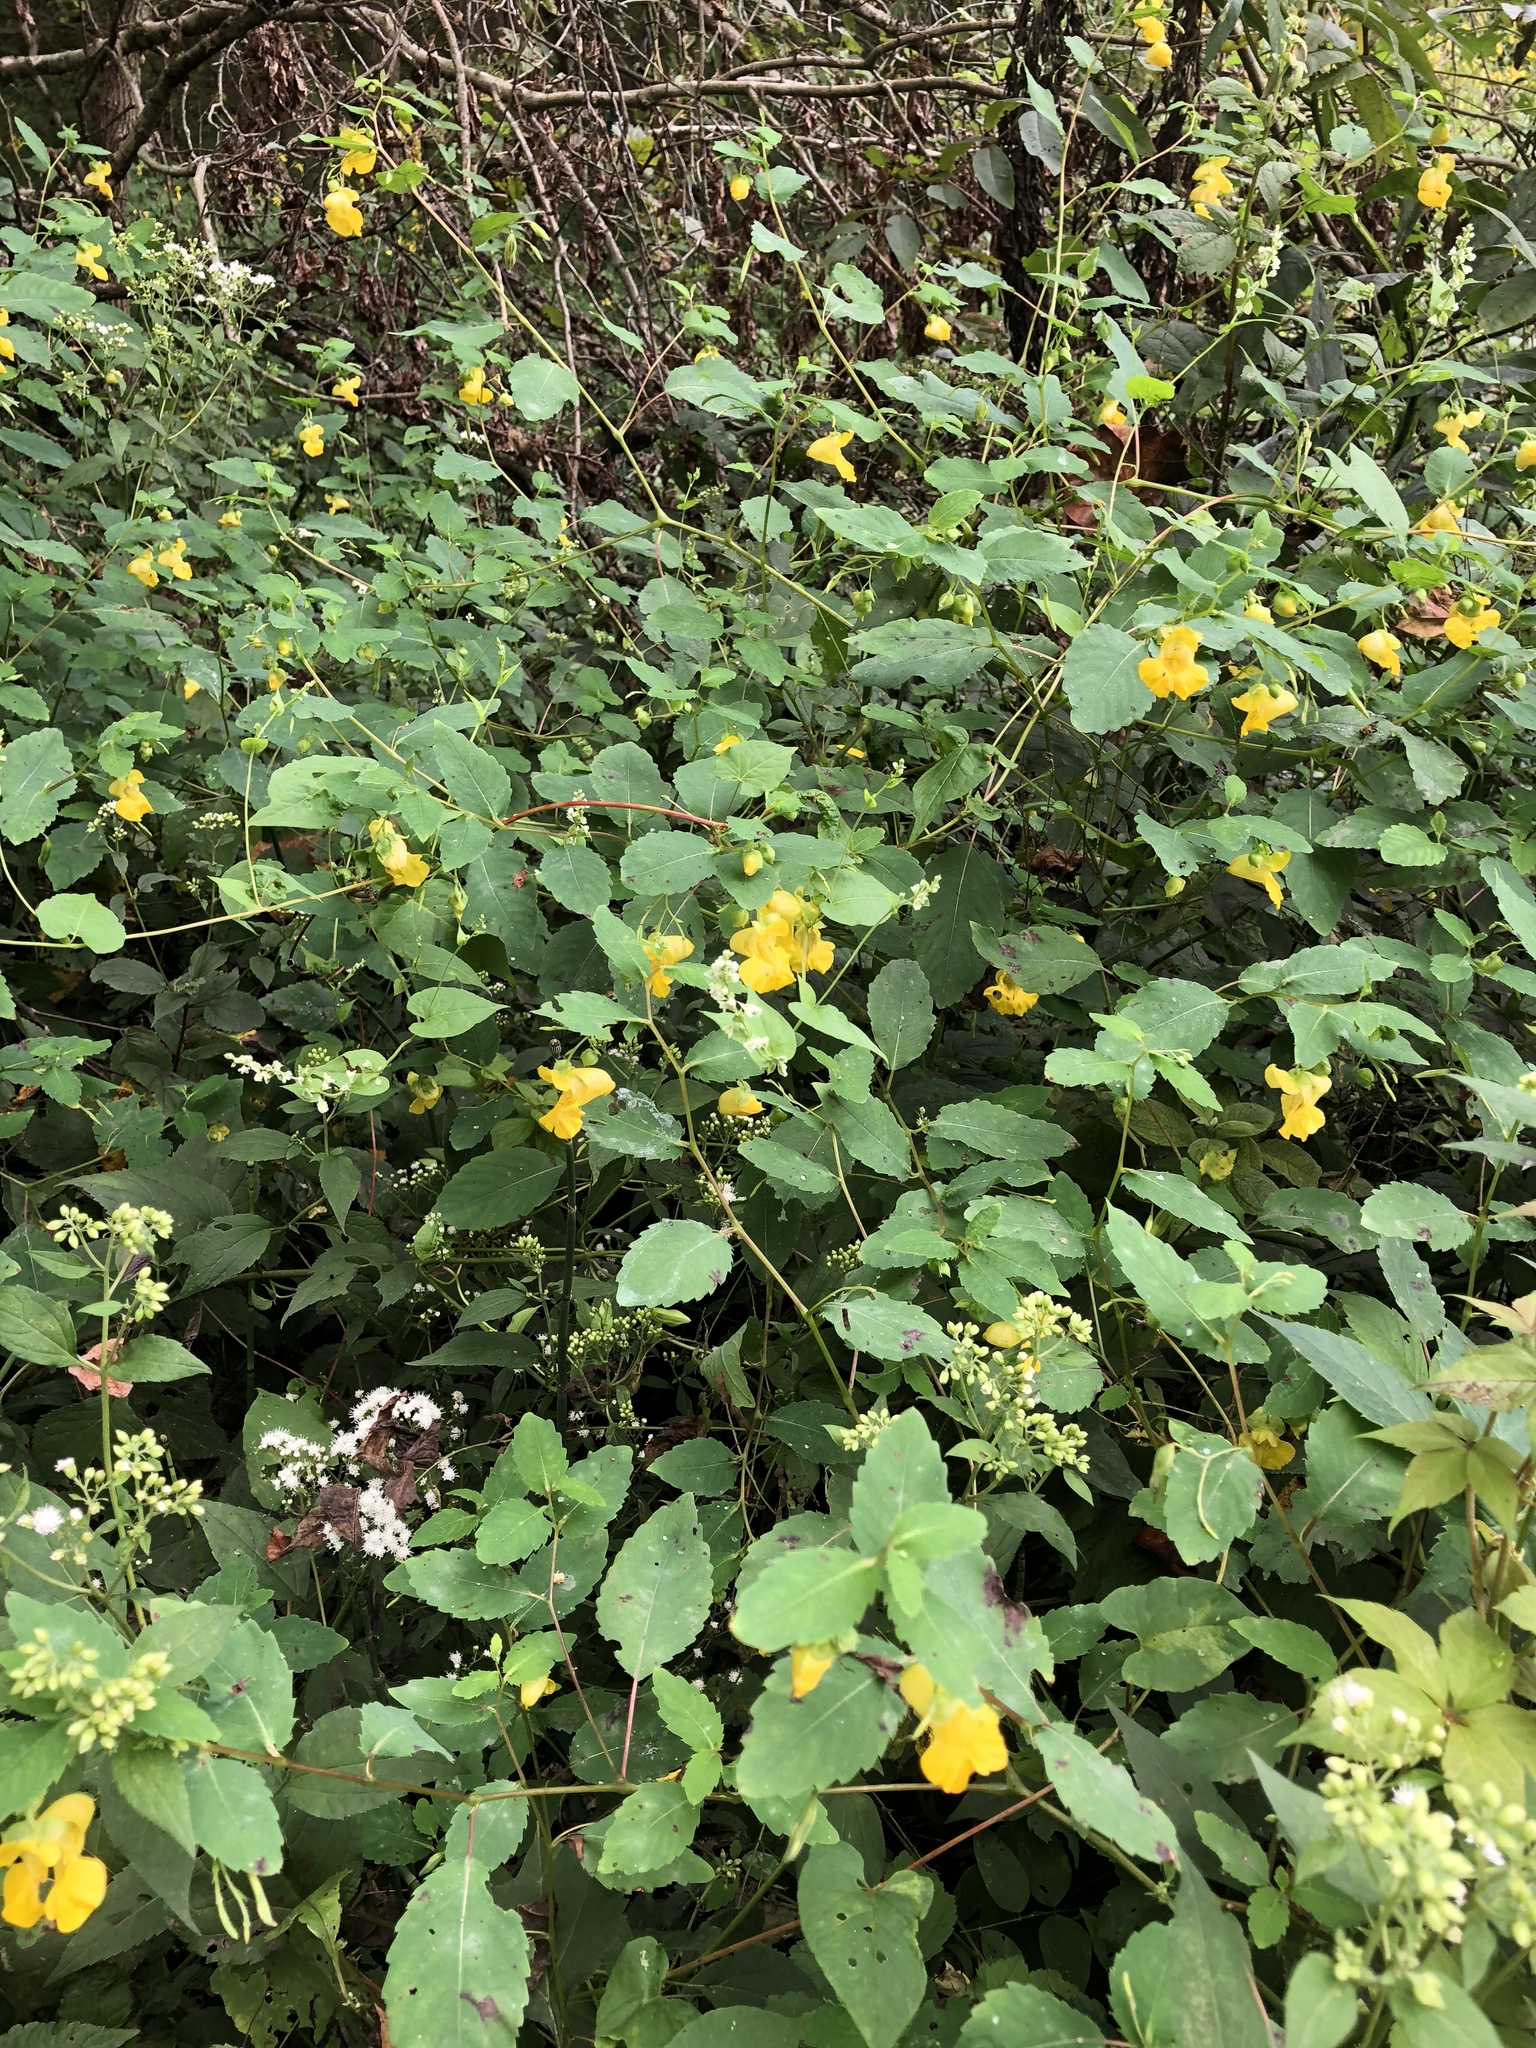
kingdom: Plantae
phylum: Tracheophyta
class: Magnoliopsida
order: Ericales
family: Balsaminaceae
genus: Impatiens
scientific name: Impatiens pallida
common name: Pale snapweed
